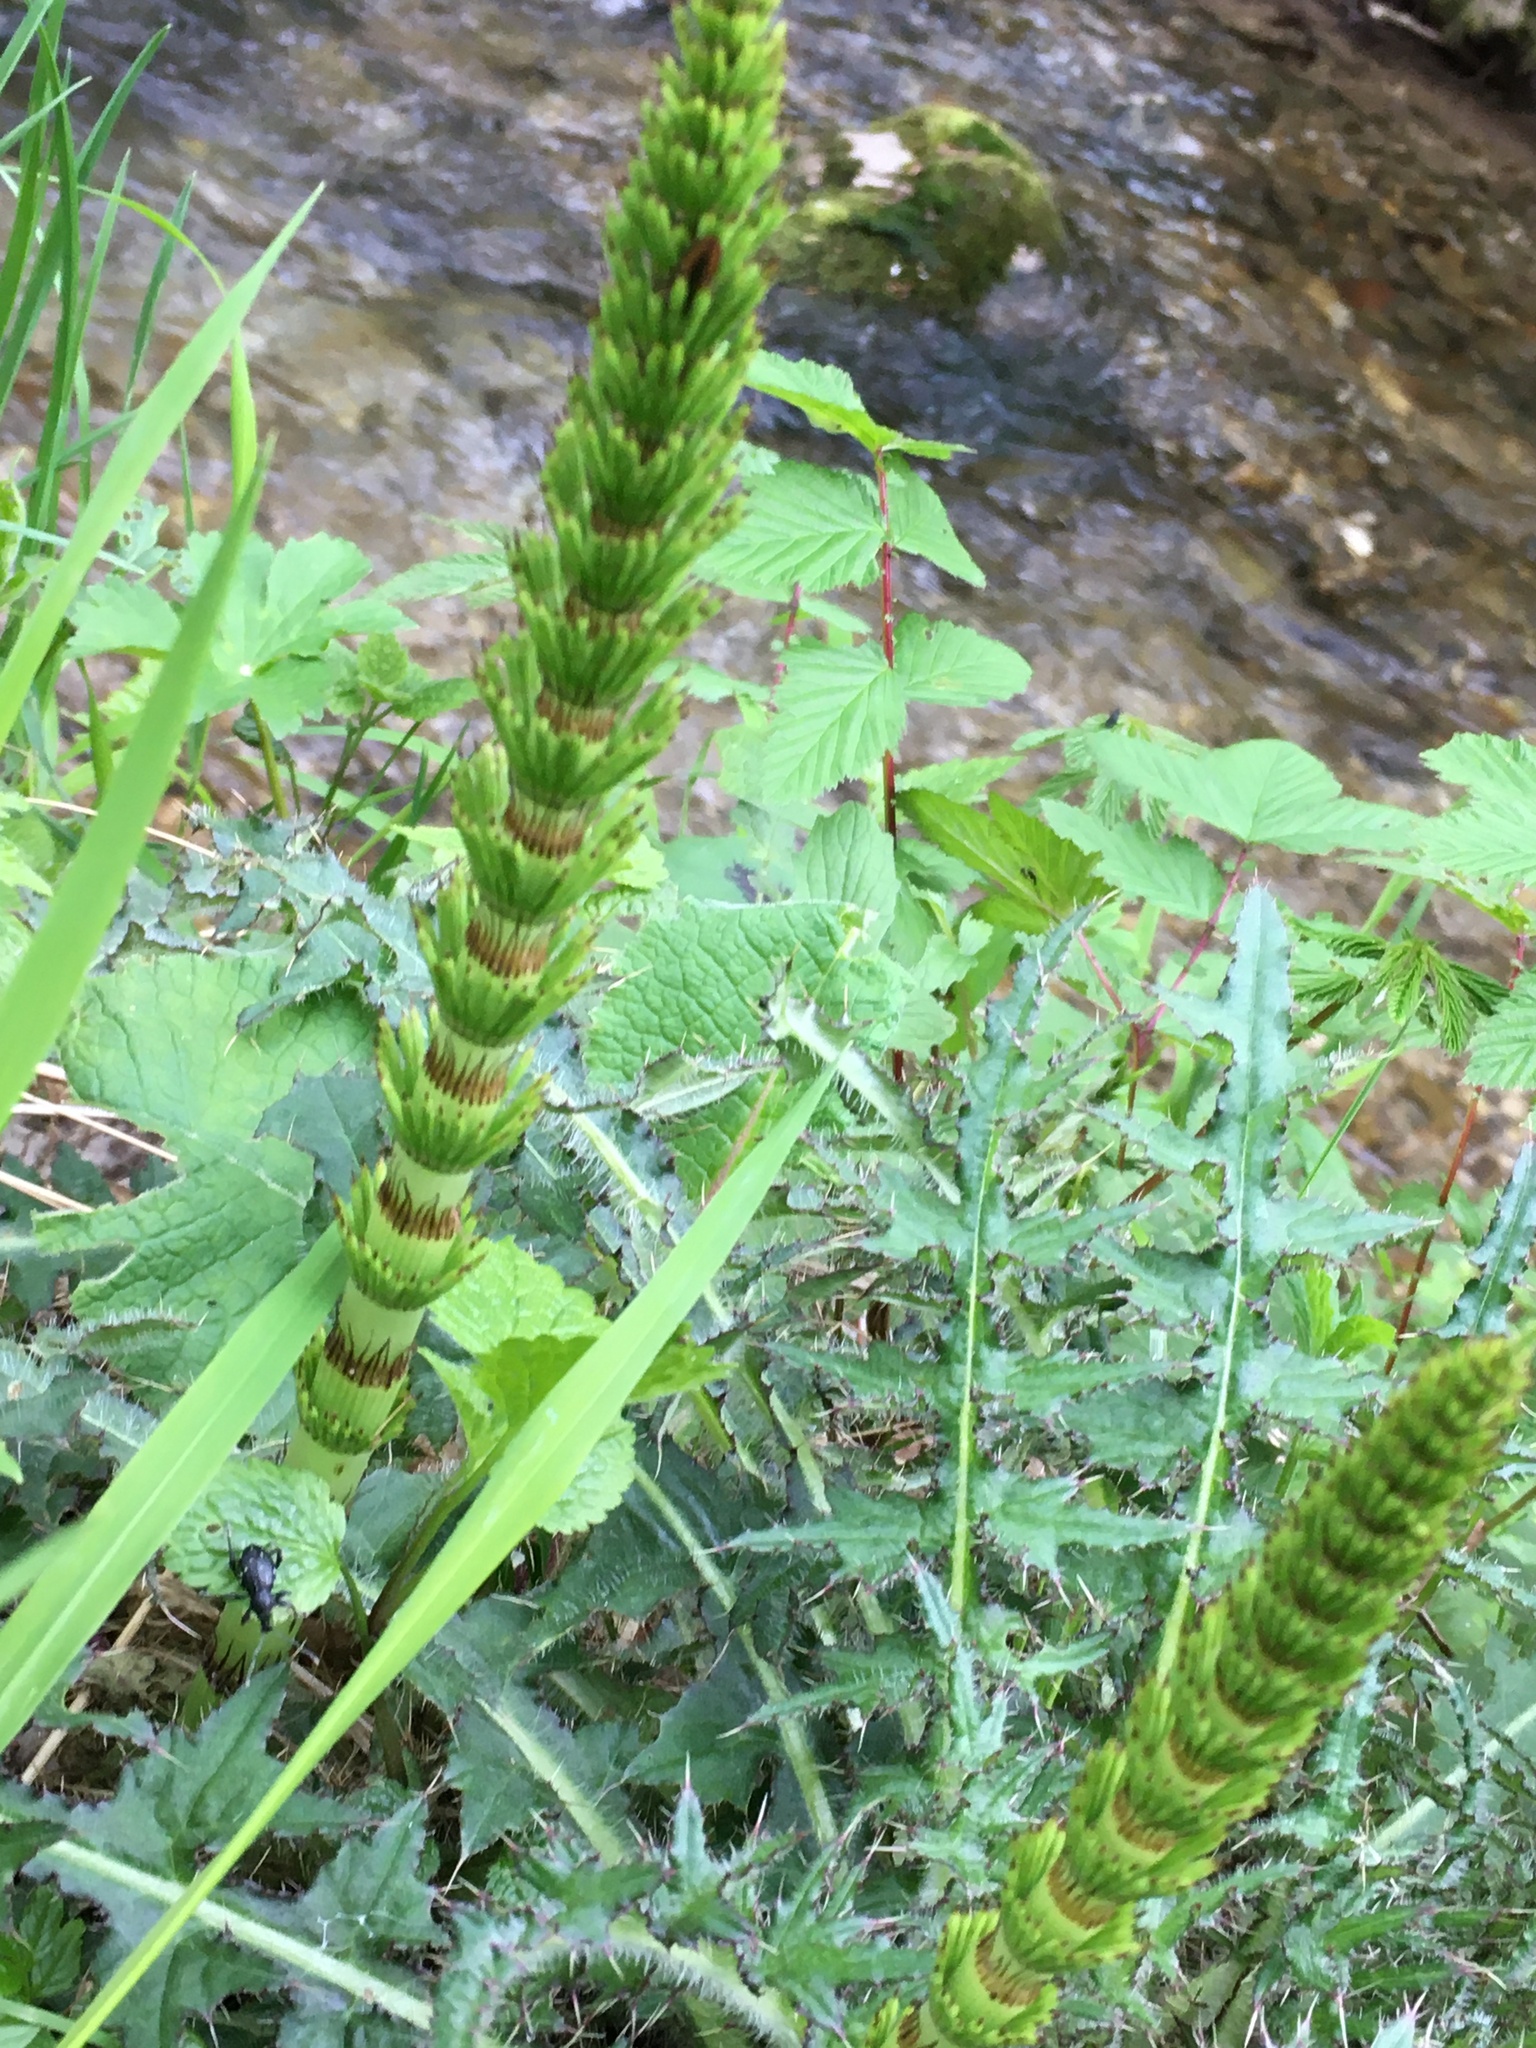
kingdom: Plantae
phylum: Tracheophyta
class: Polypodiopsida
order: Equisetales
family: Equisetaceae
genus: Equisetum
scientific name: Equisetum telmateia
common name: Great horsetail
